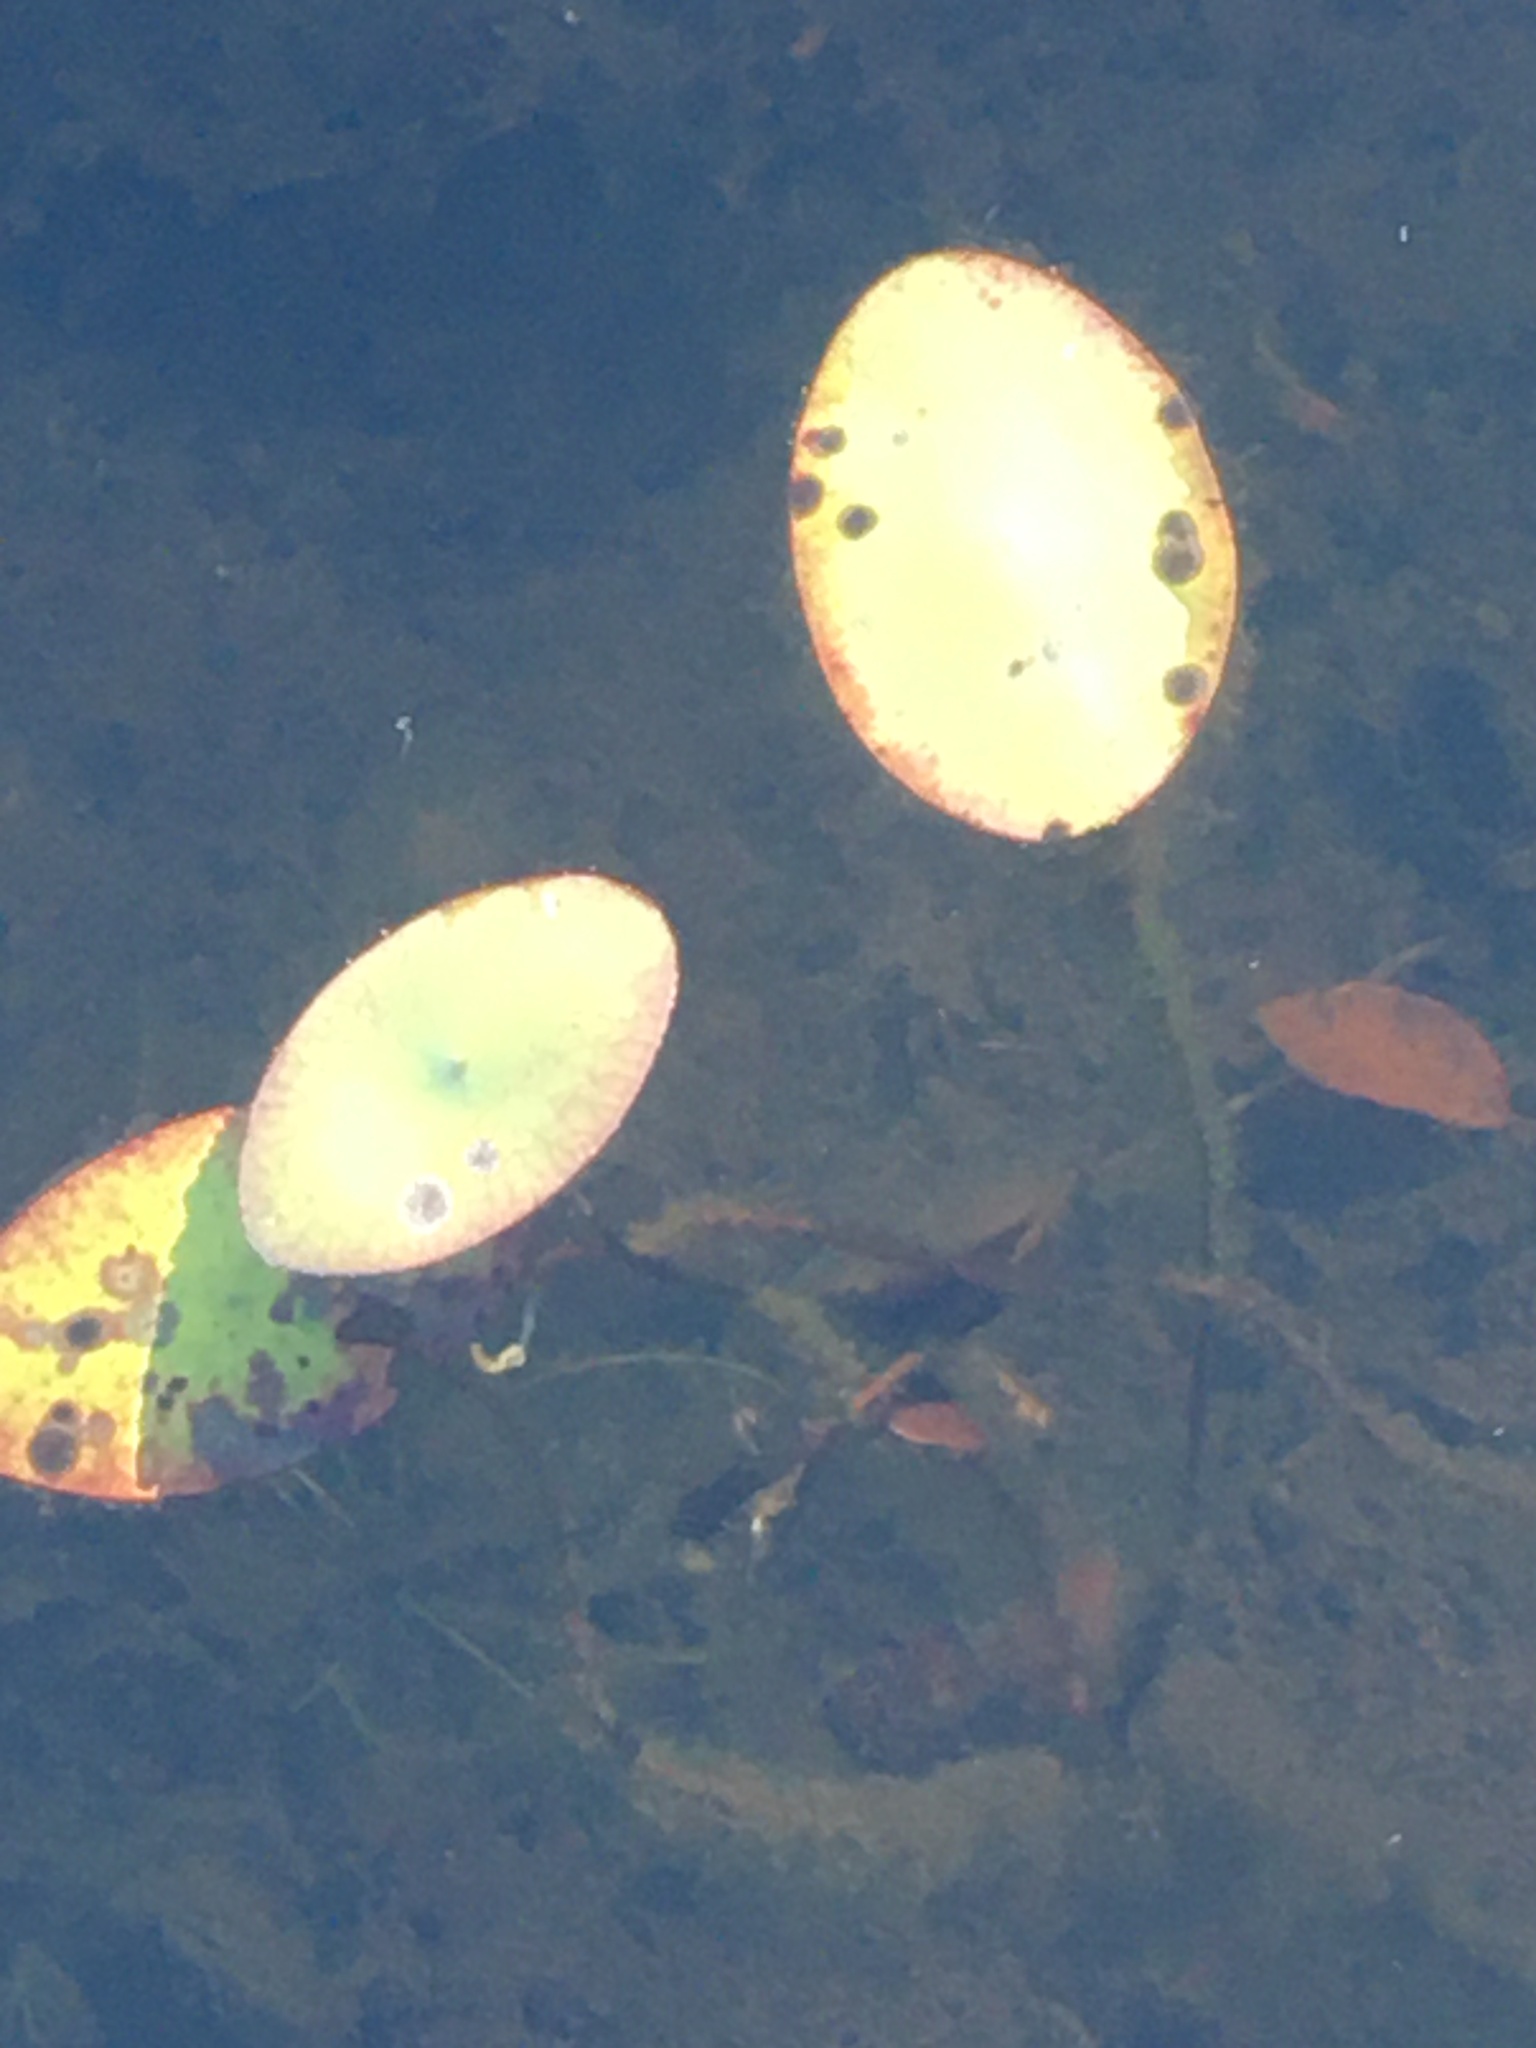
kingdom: Plantae
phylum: Tracheophyta
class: Magnoliopsida
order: Nymphaeales
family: Cabombaceae
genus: Brasenia
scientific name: Brasenia schreberi
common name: Water-shield
